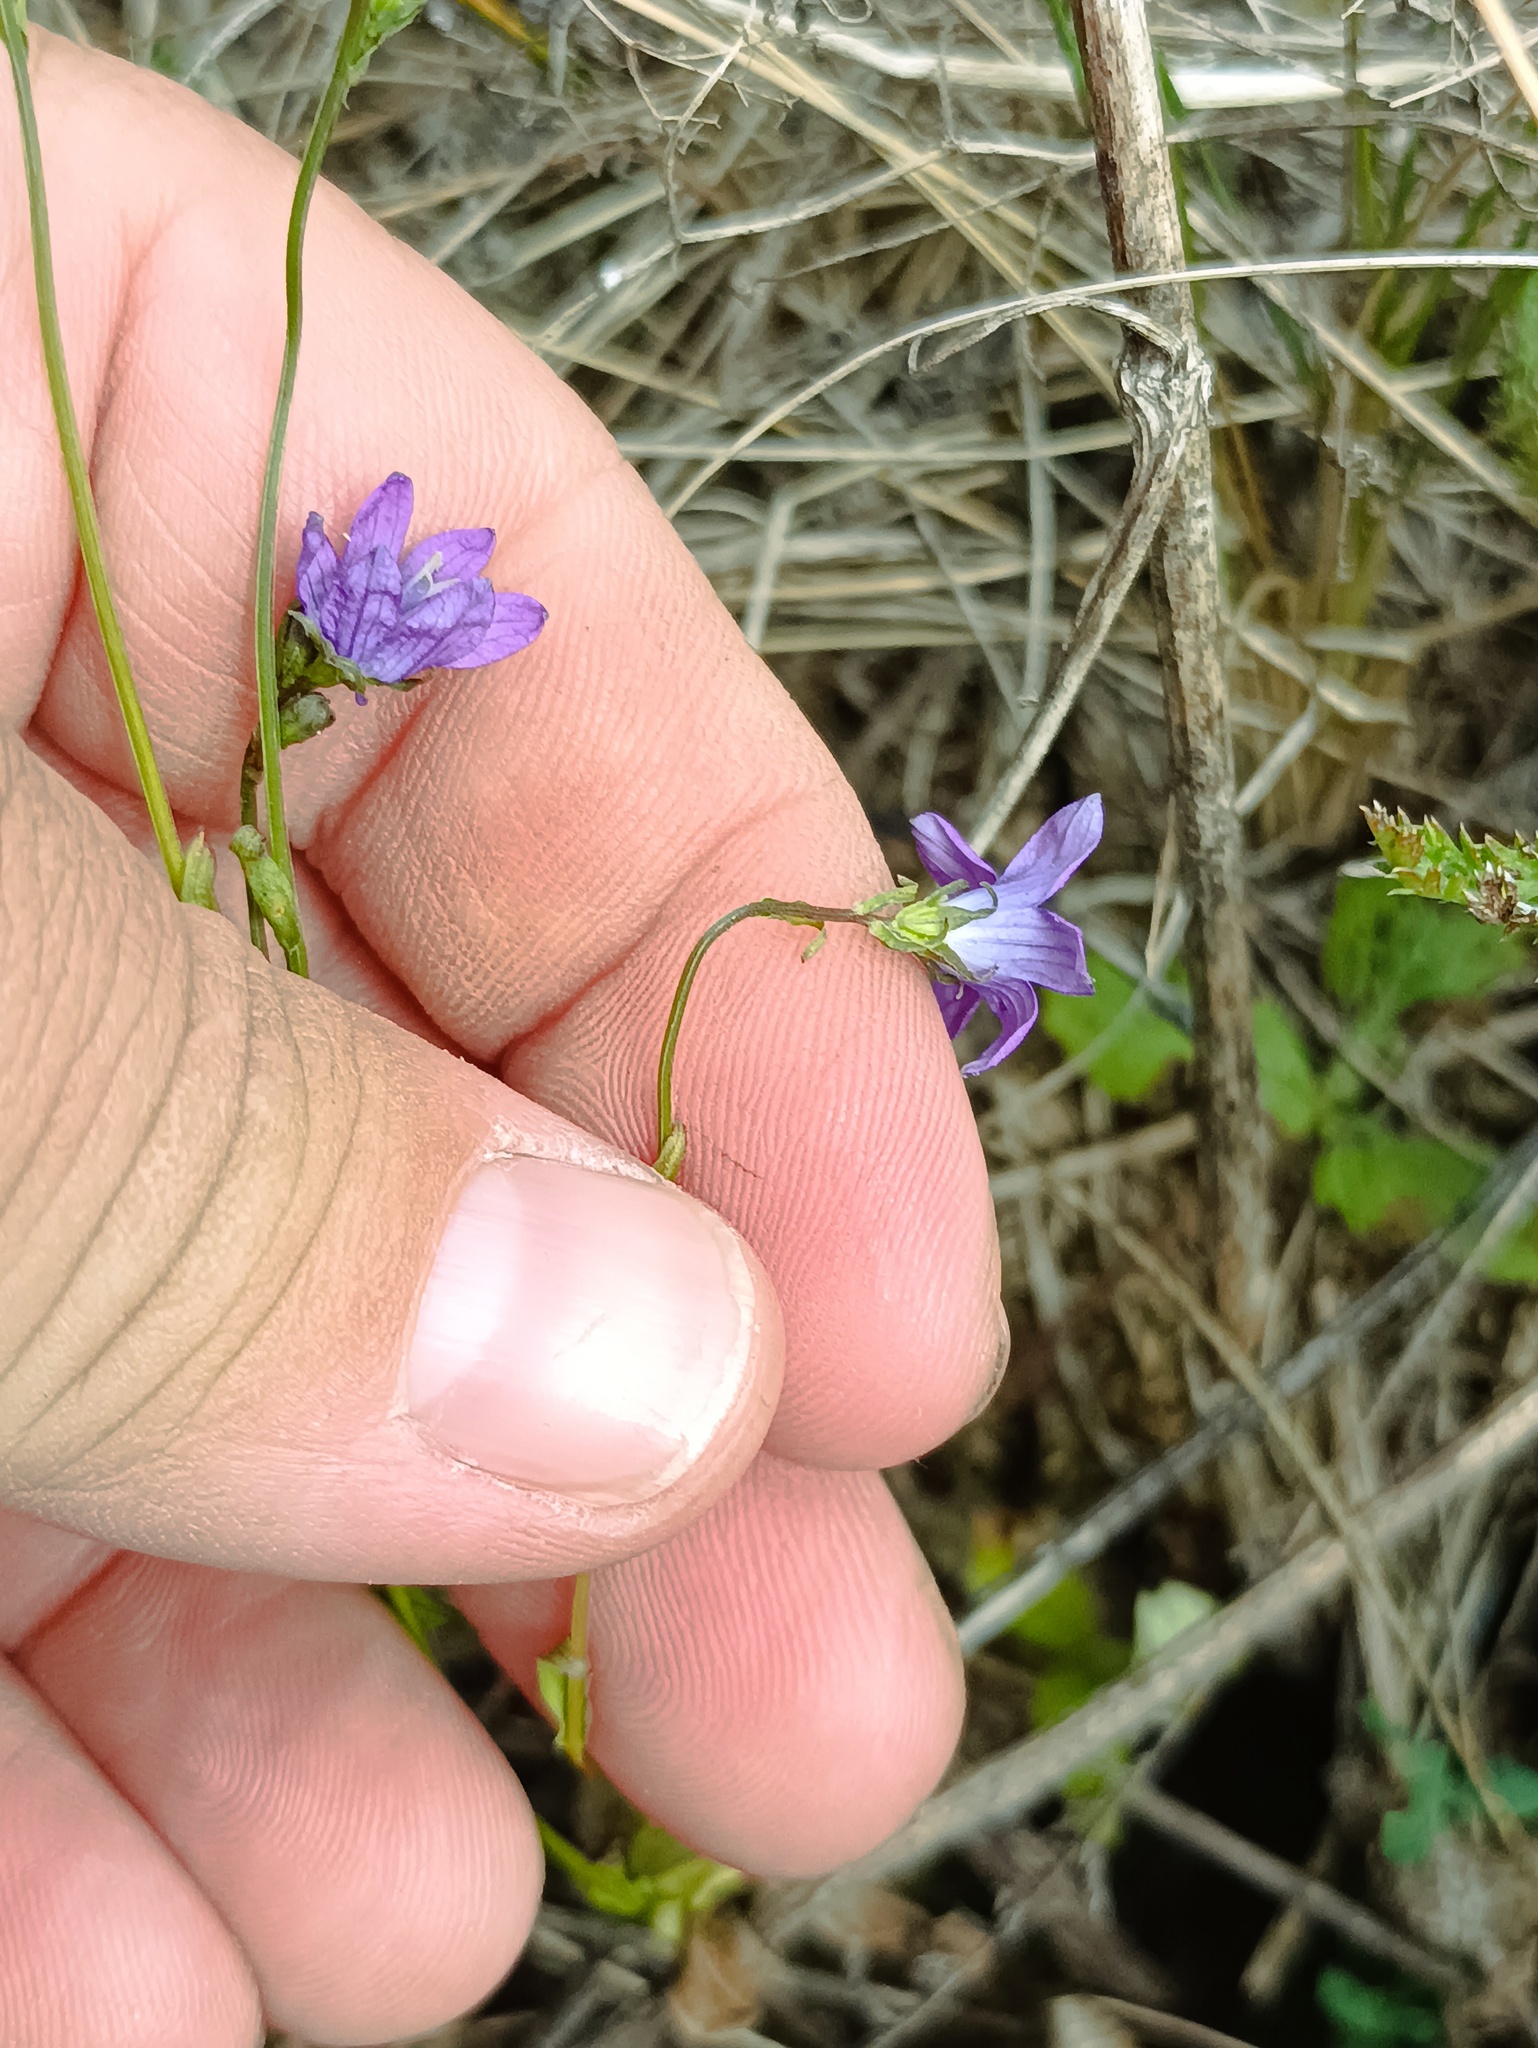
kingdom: Plantae
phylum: Tracheophyta
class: Magnoliopsida
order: Asterales
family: Campanulaceae
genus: Campanula
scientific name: Campanula patula
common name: Spreading bellflower
